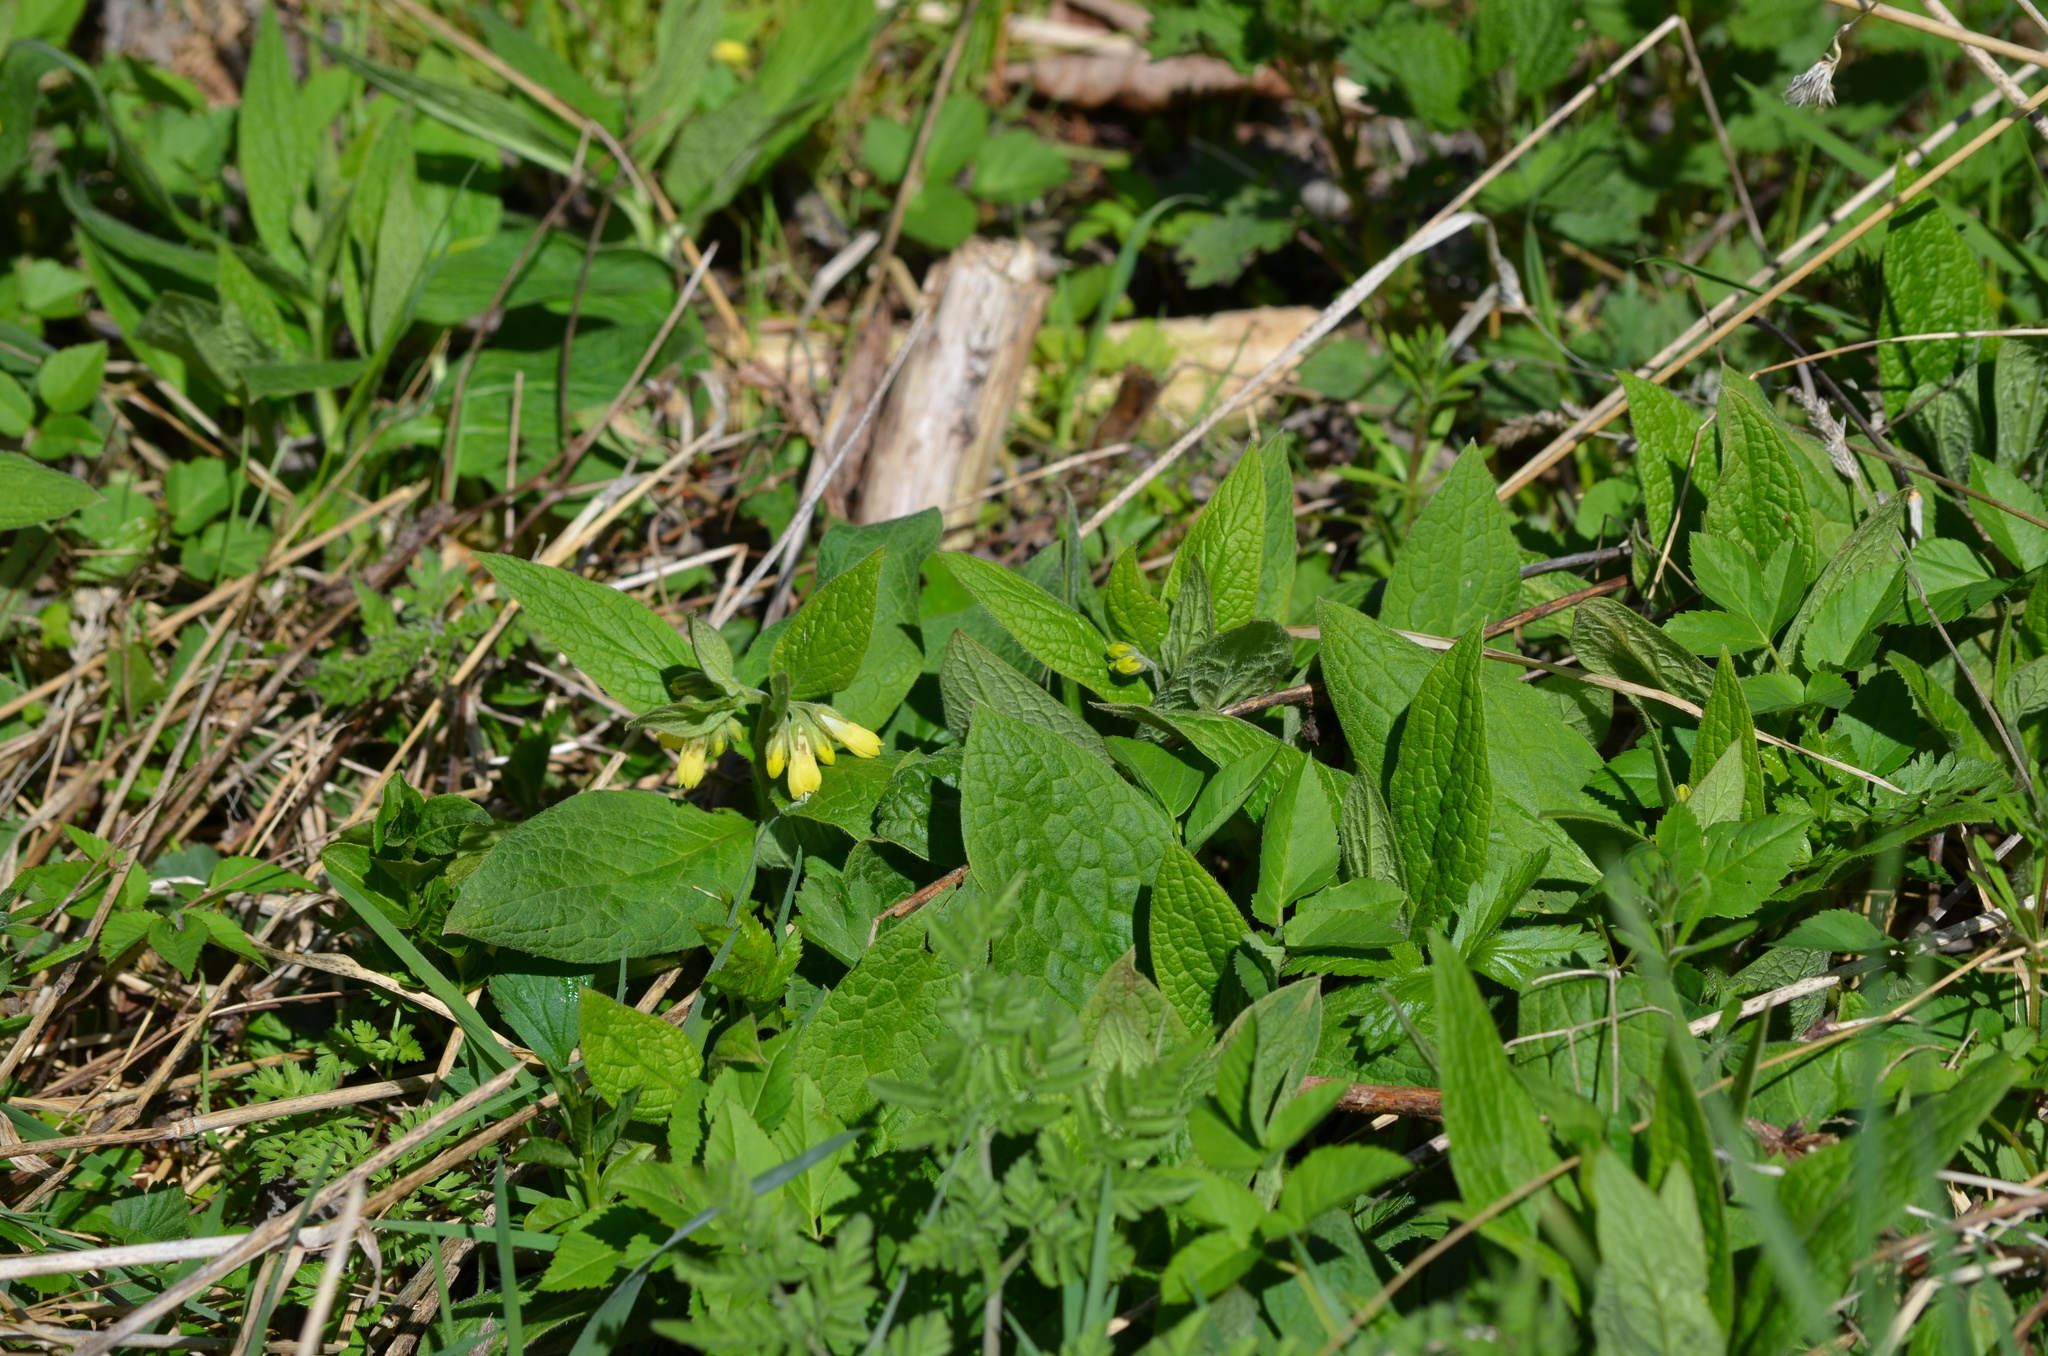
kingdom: Plantae
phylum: Tracheophyta
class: Magnoliopsida
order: Boraginales
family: Boraginaceae
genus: Symphytum
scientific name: Symphytum tuberosum
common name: Tuberous comfrey
